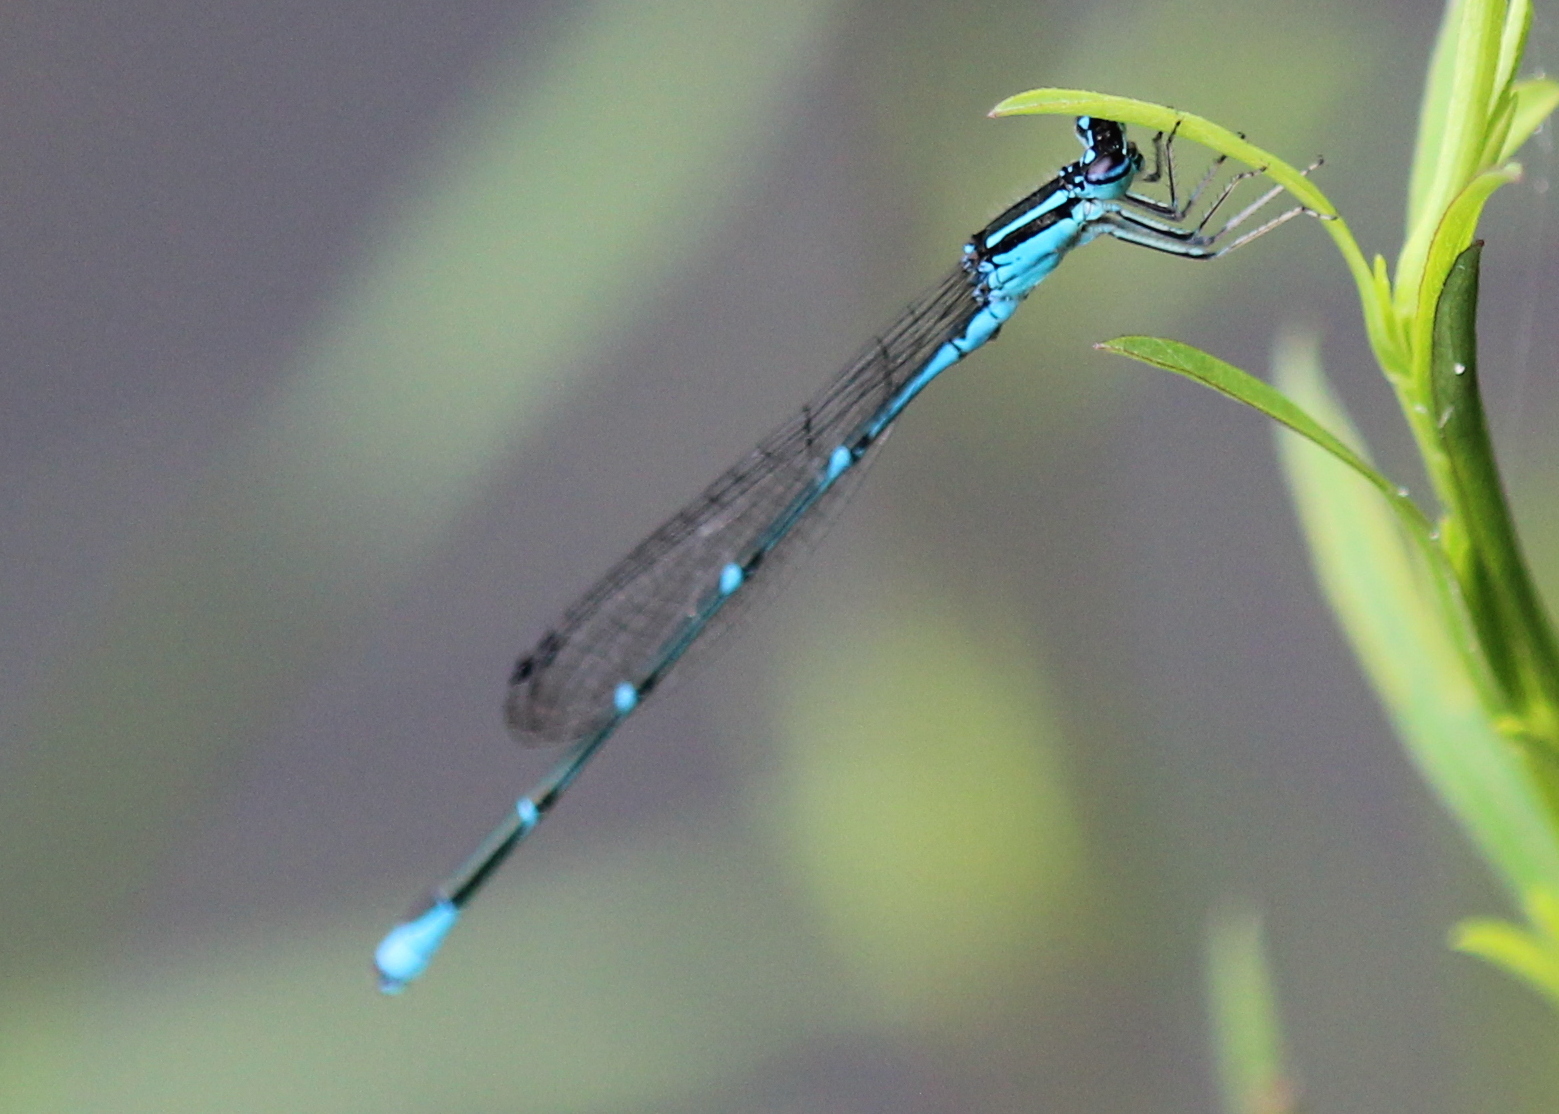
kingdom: Animalia
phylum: Arthropoda
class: Insecta
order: Odonata
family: Coenagrionidae
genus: Enallagma
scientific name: Enallagma exsulans
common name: Stream bluet
